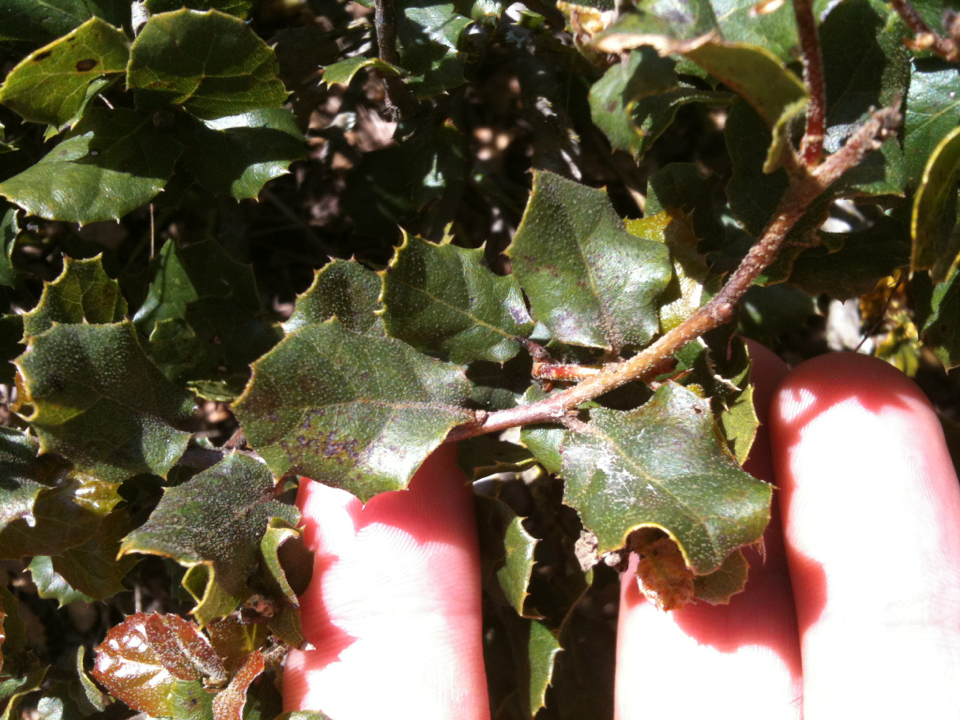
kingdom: Plantae
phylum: Tracheophyta
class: Magnoliopsida
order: Fagales
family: Fagaceae
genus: Quercus
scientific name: Quercus berberidifolia
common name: California scrub oak
